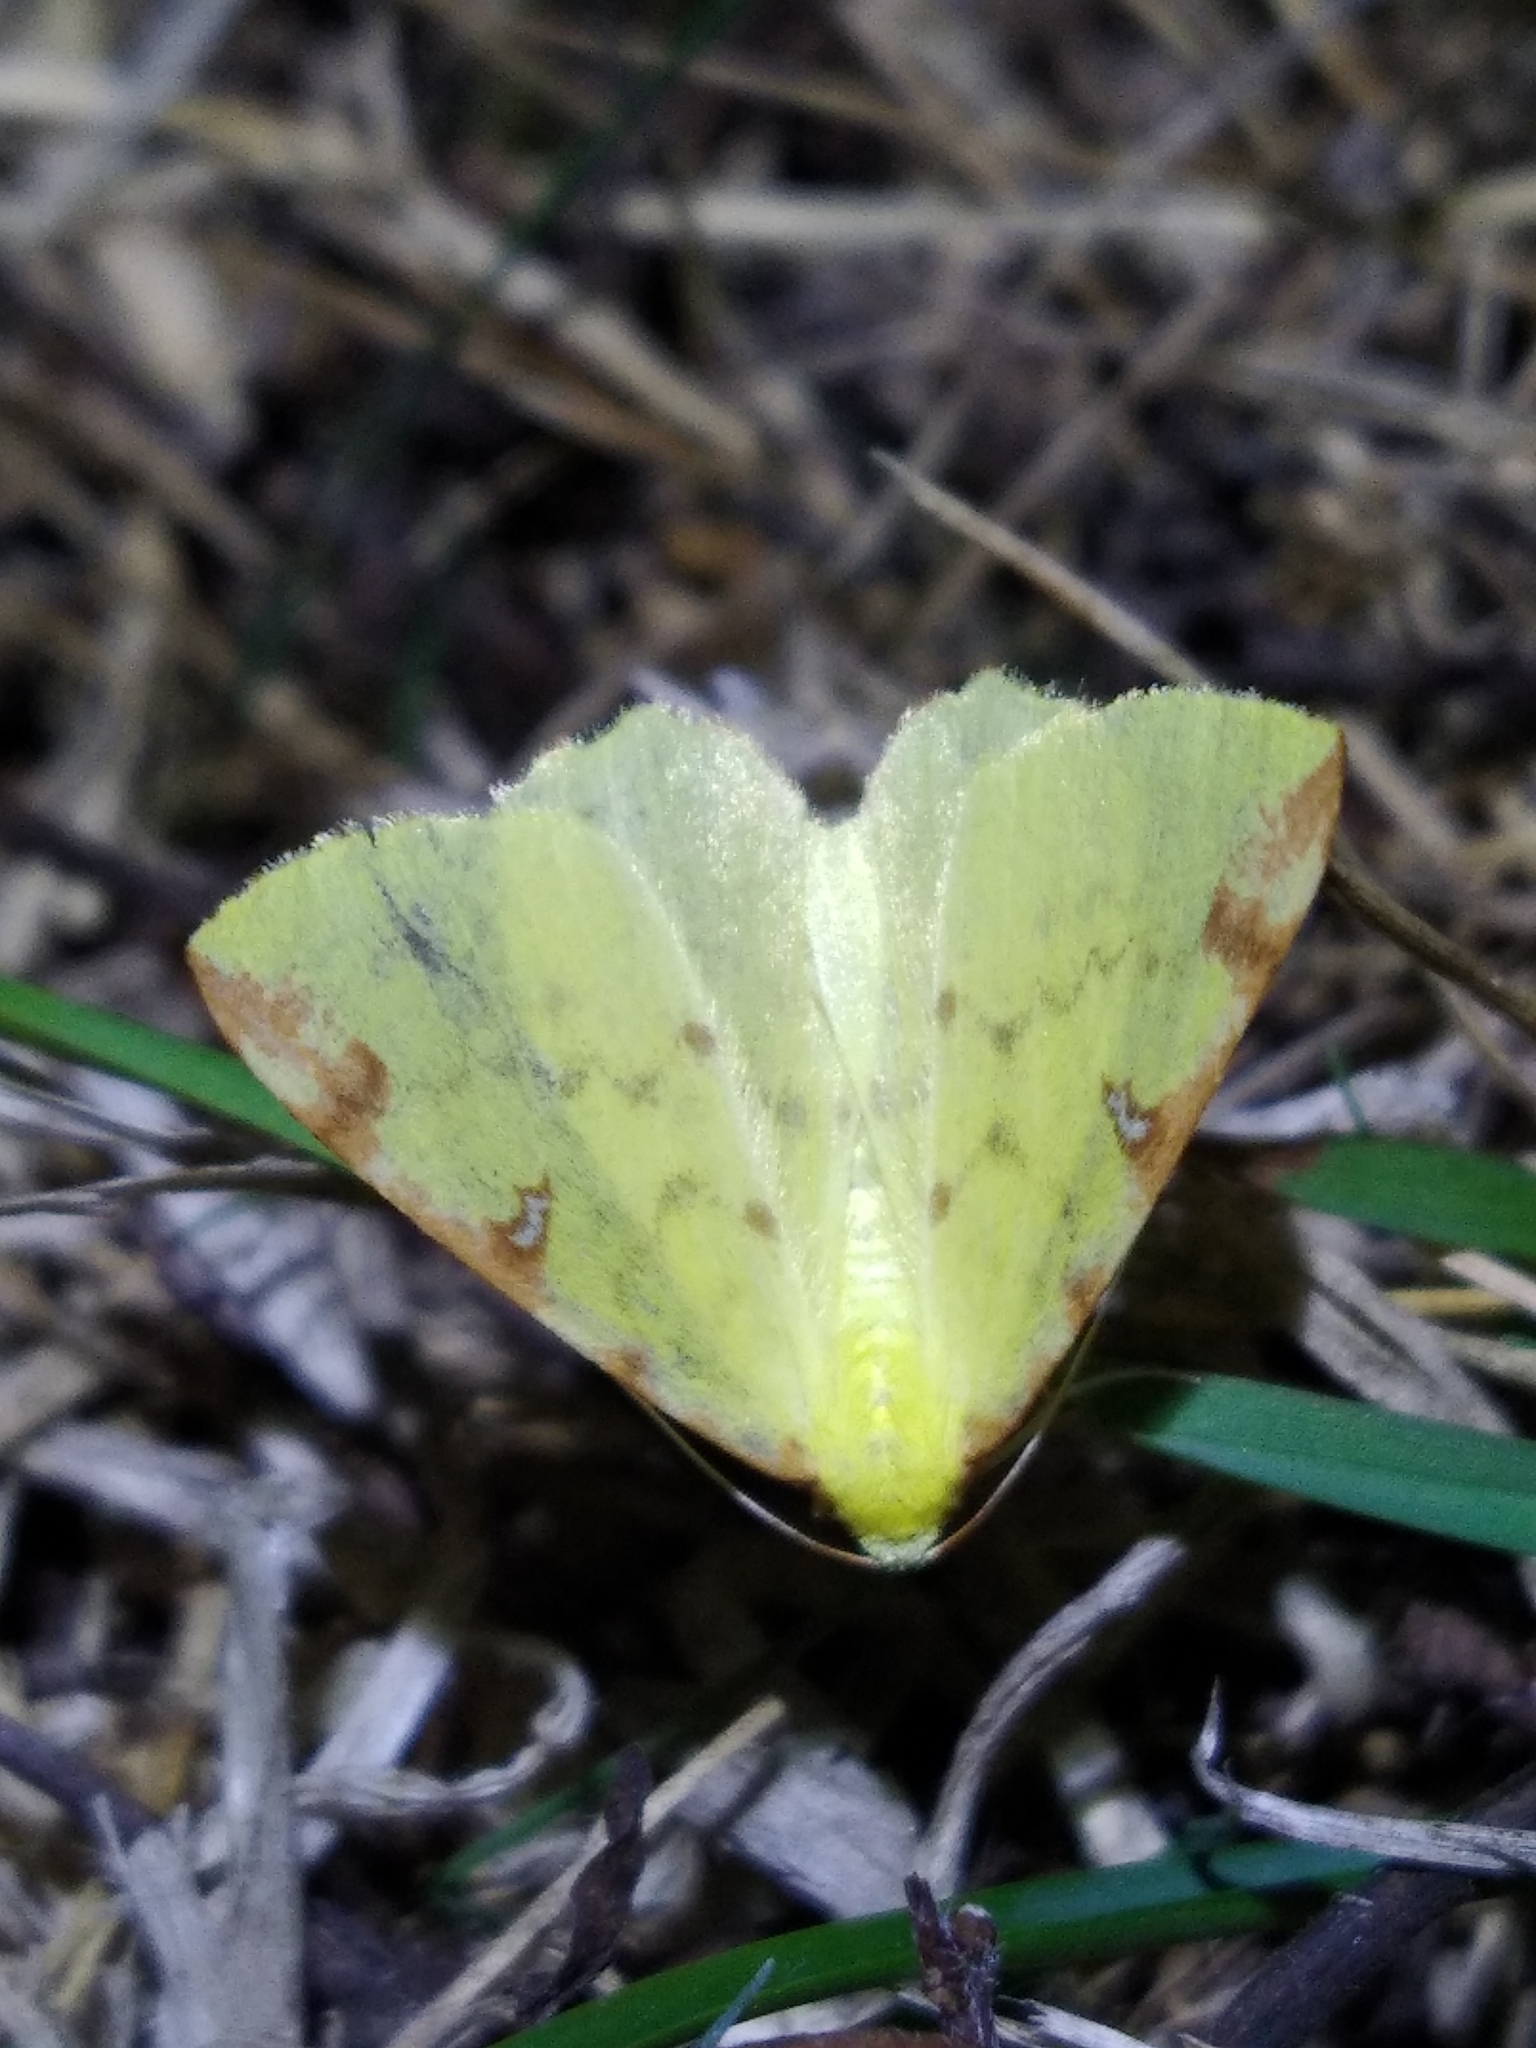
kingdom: Animalia
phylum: Arthropoda
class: Insecta
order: Lepidoptera
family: Geometridae
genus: Opisthograptis
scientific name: Opisthograptis luteolata
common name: Brimstone moth
